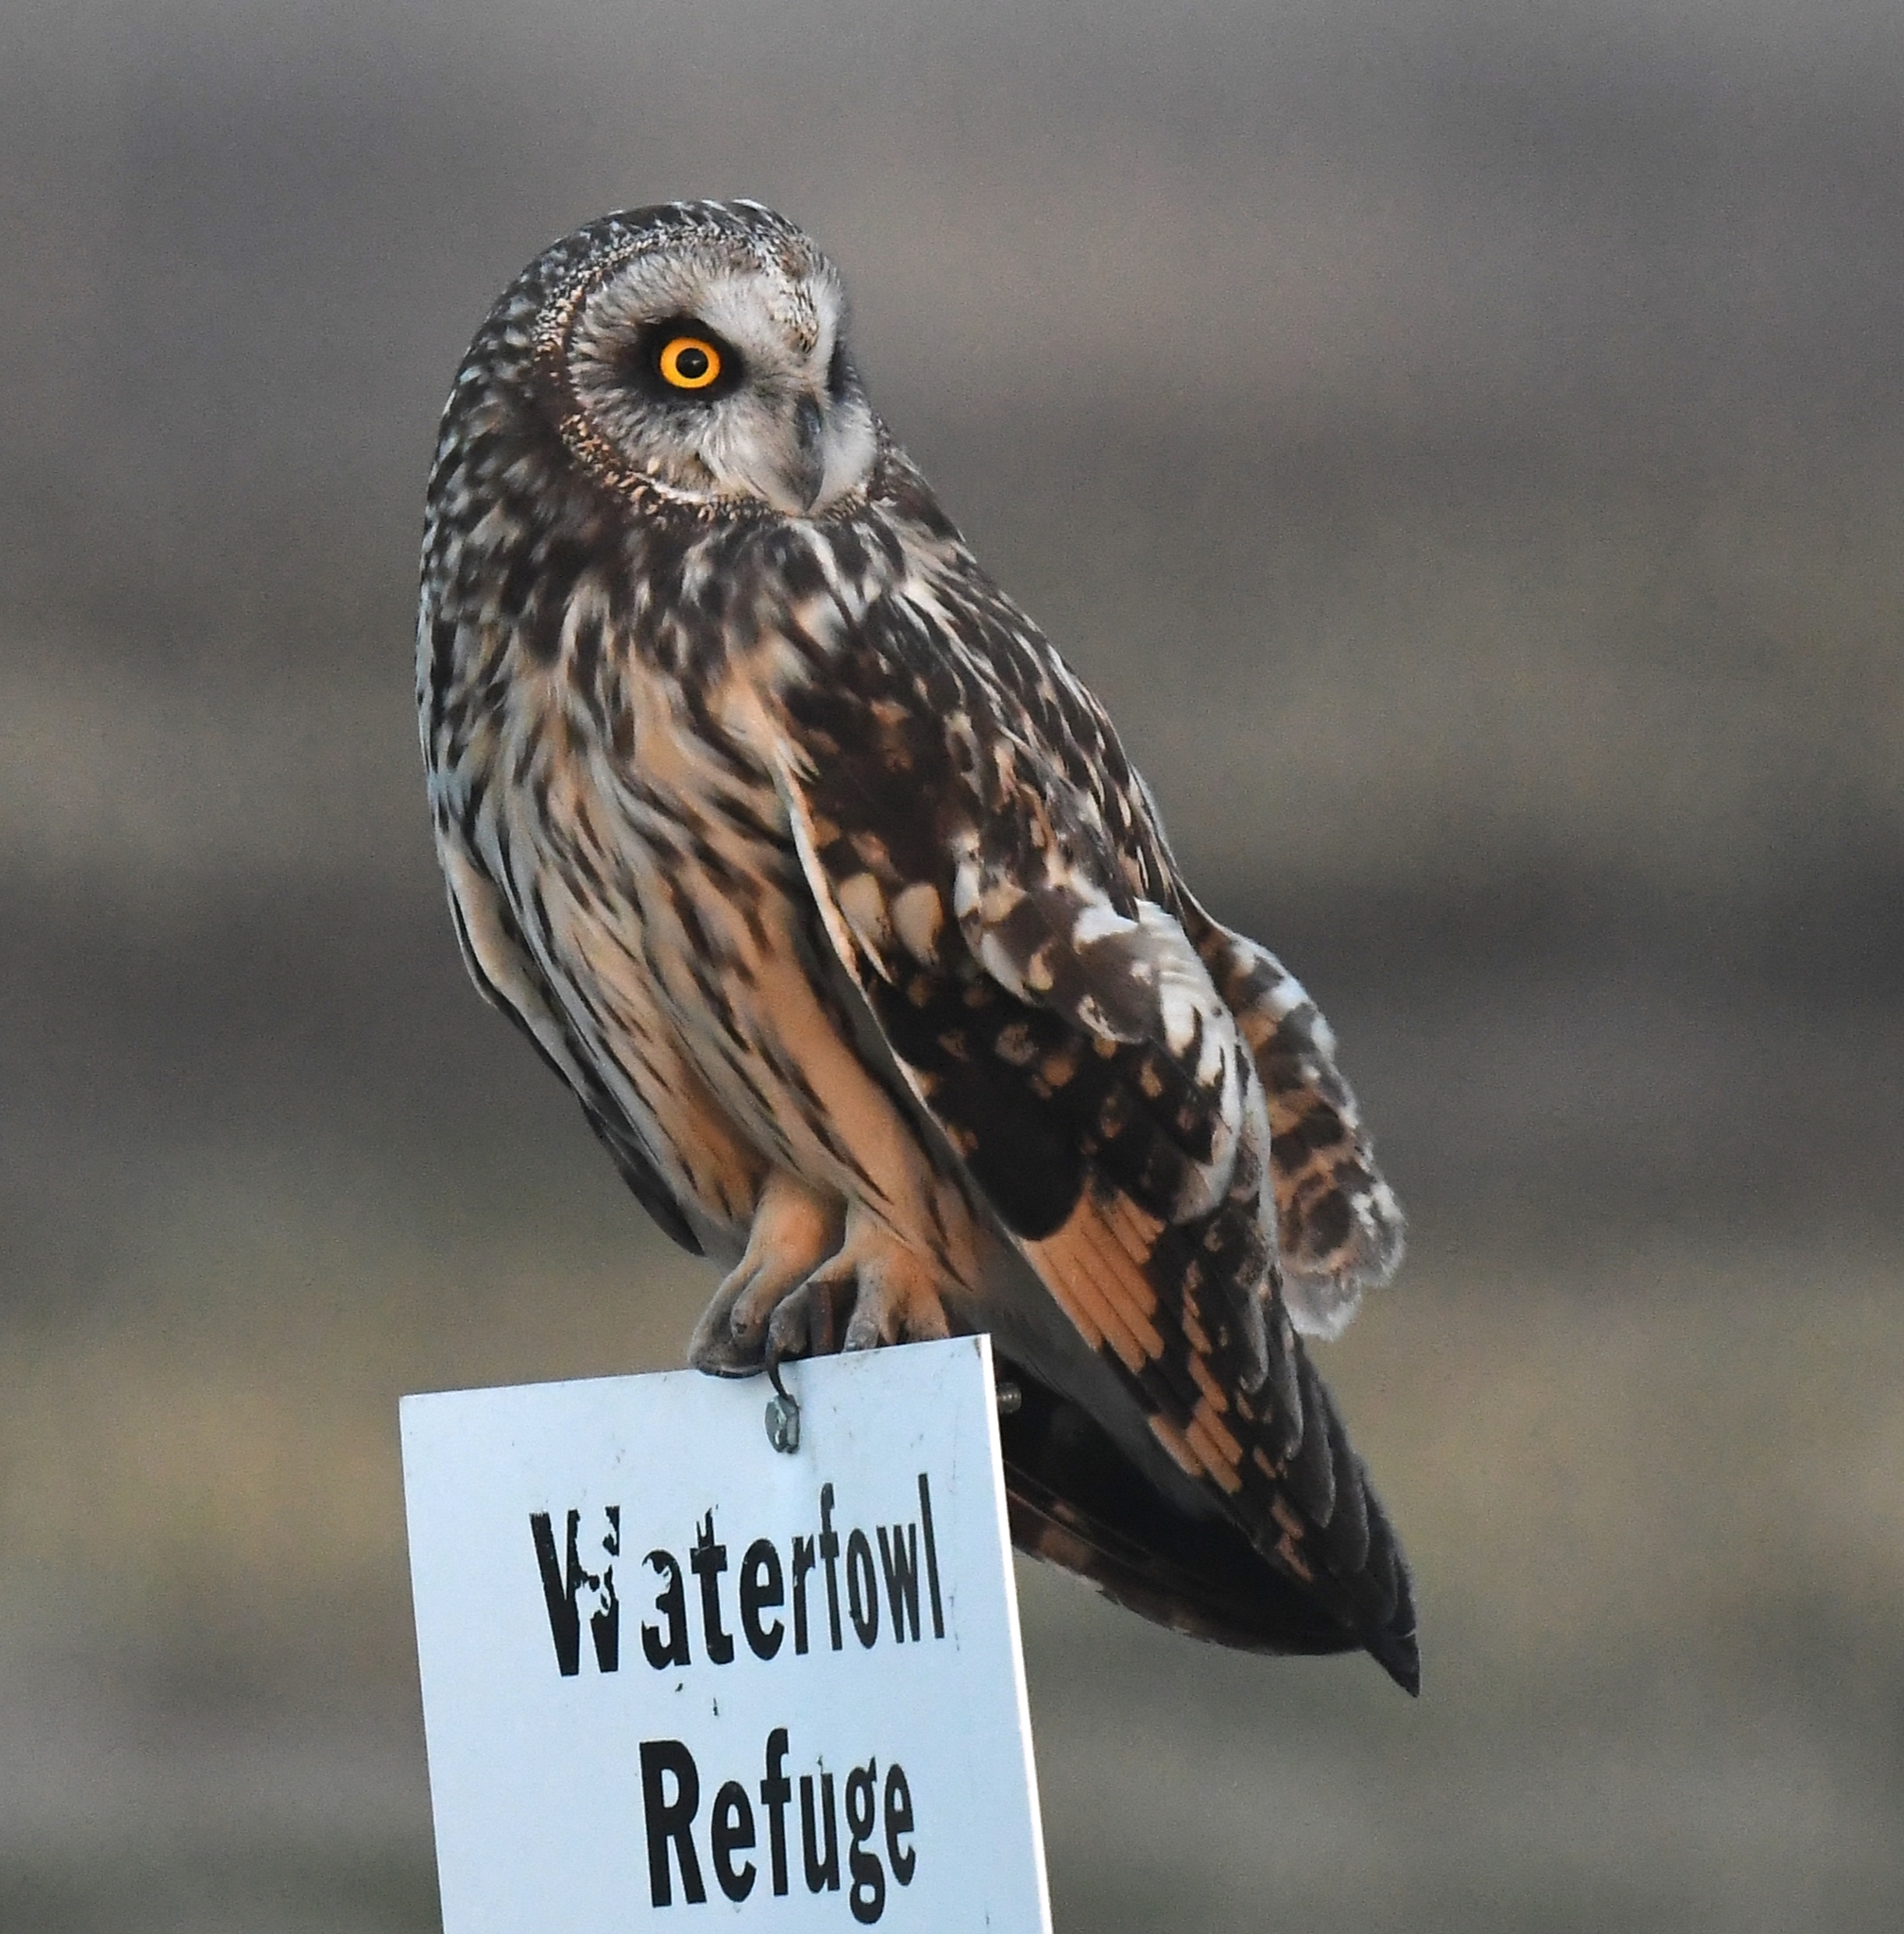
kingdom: Animalia
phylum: Chordata
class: Aves
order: Strigiformes
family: Strigidae
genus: Asio
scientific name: Asio flammeus
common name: Short-eared owl
